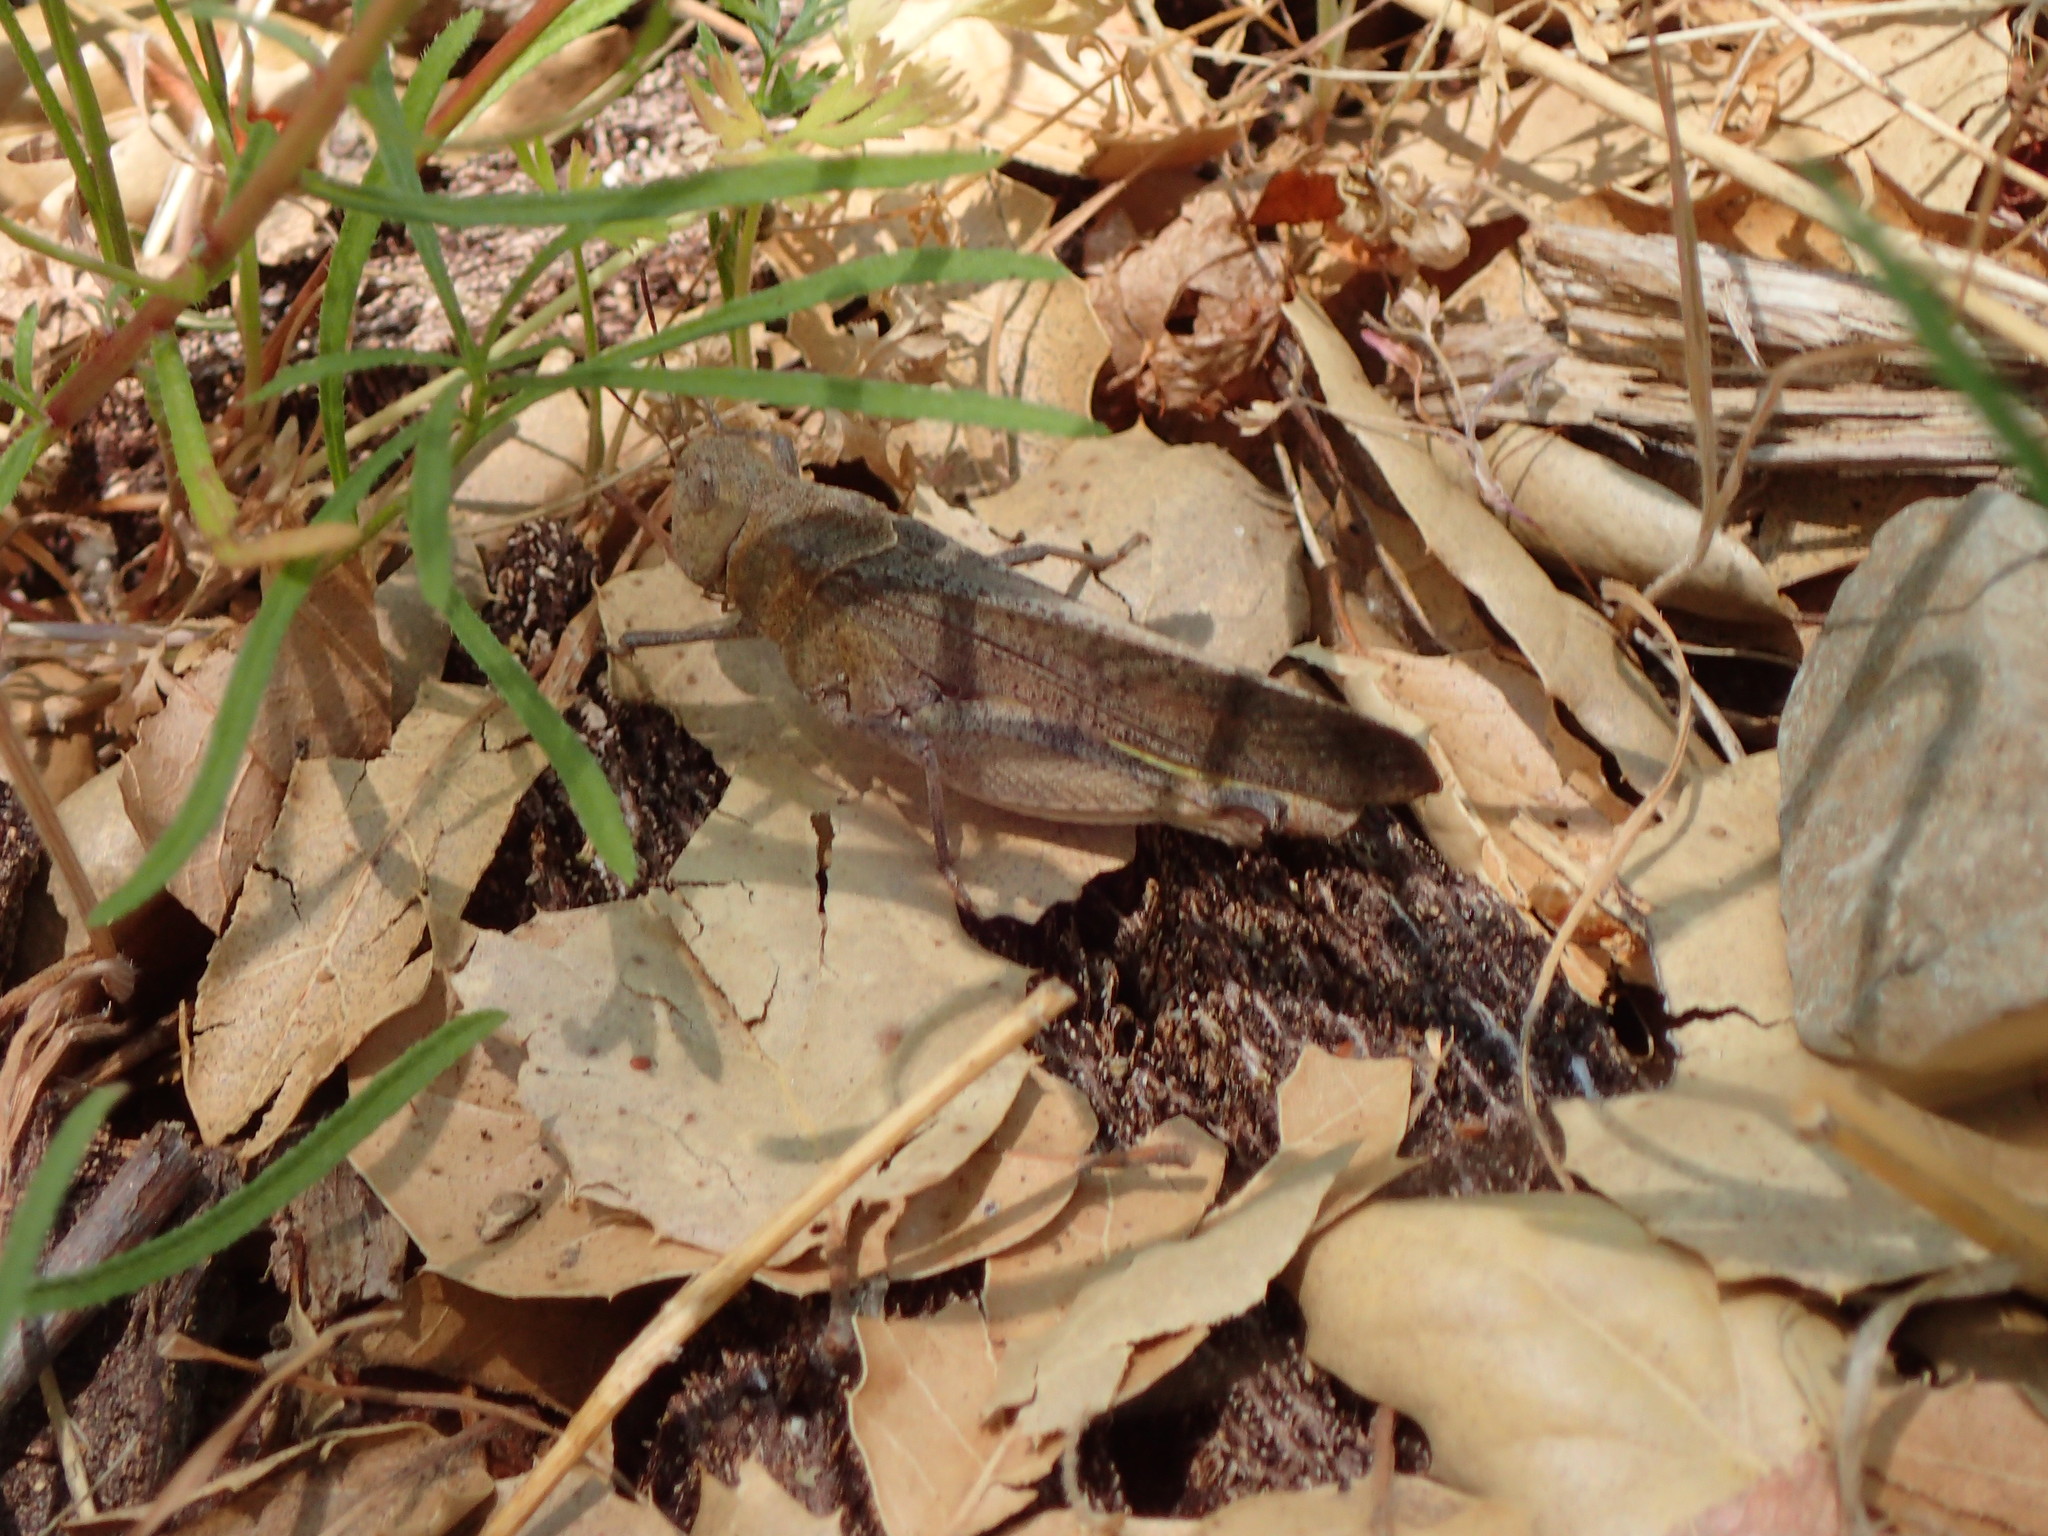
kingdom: Animalia
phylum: Arthropoda
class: Insecta
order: Orthoptera
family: Acrididae
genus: Arphia
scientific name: Arphia ramona
